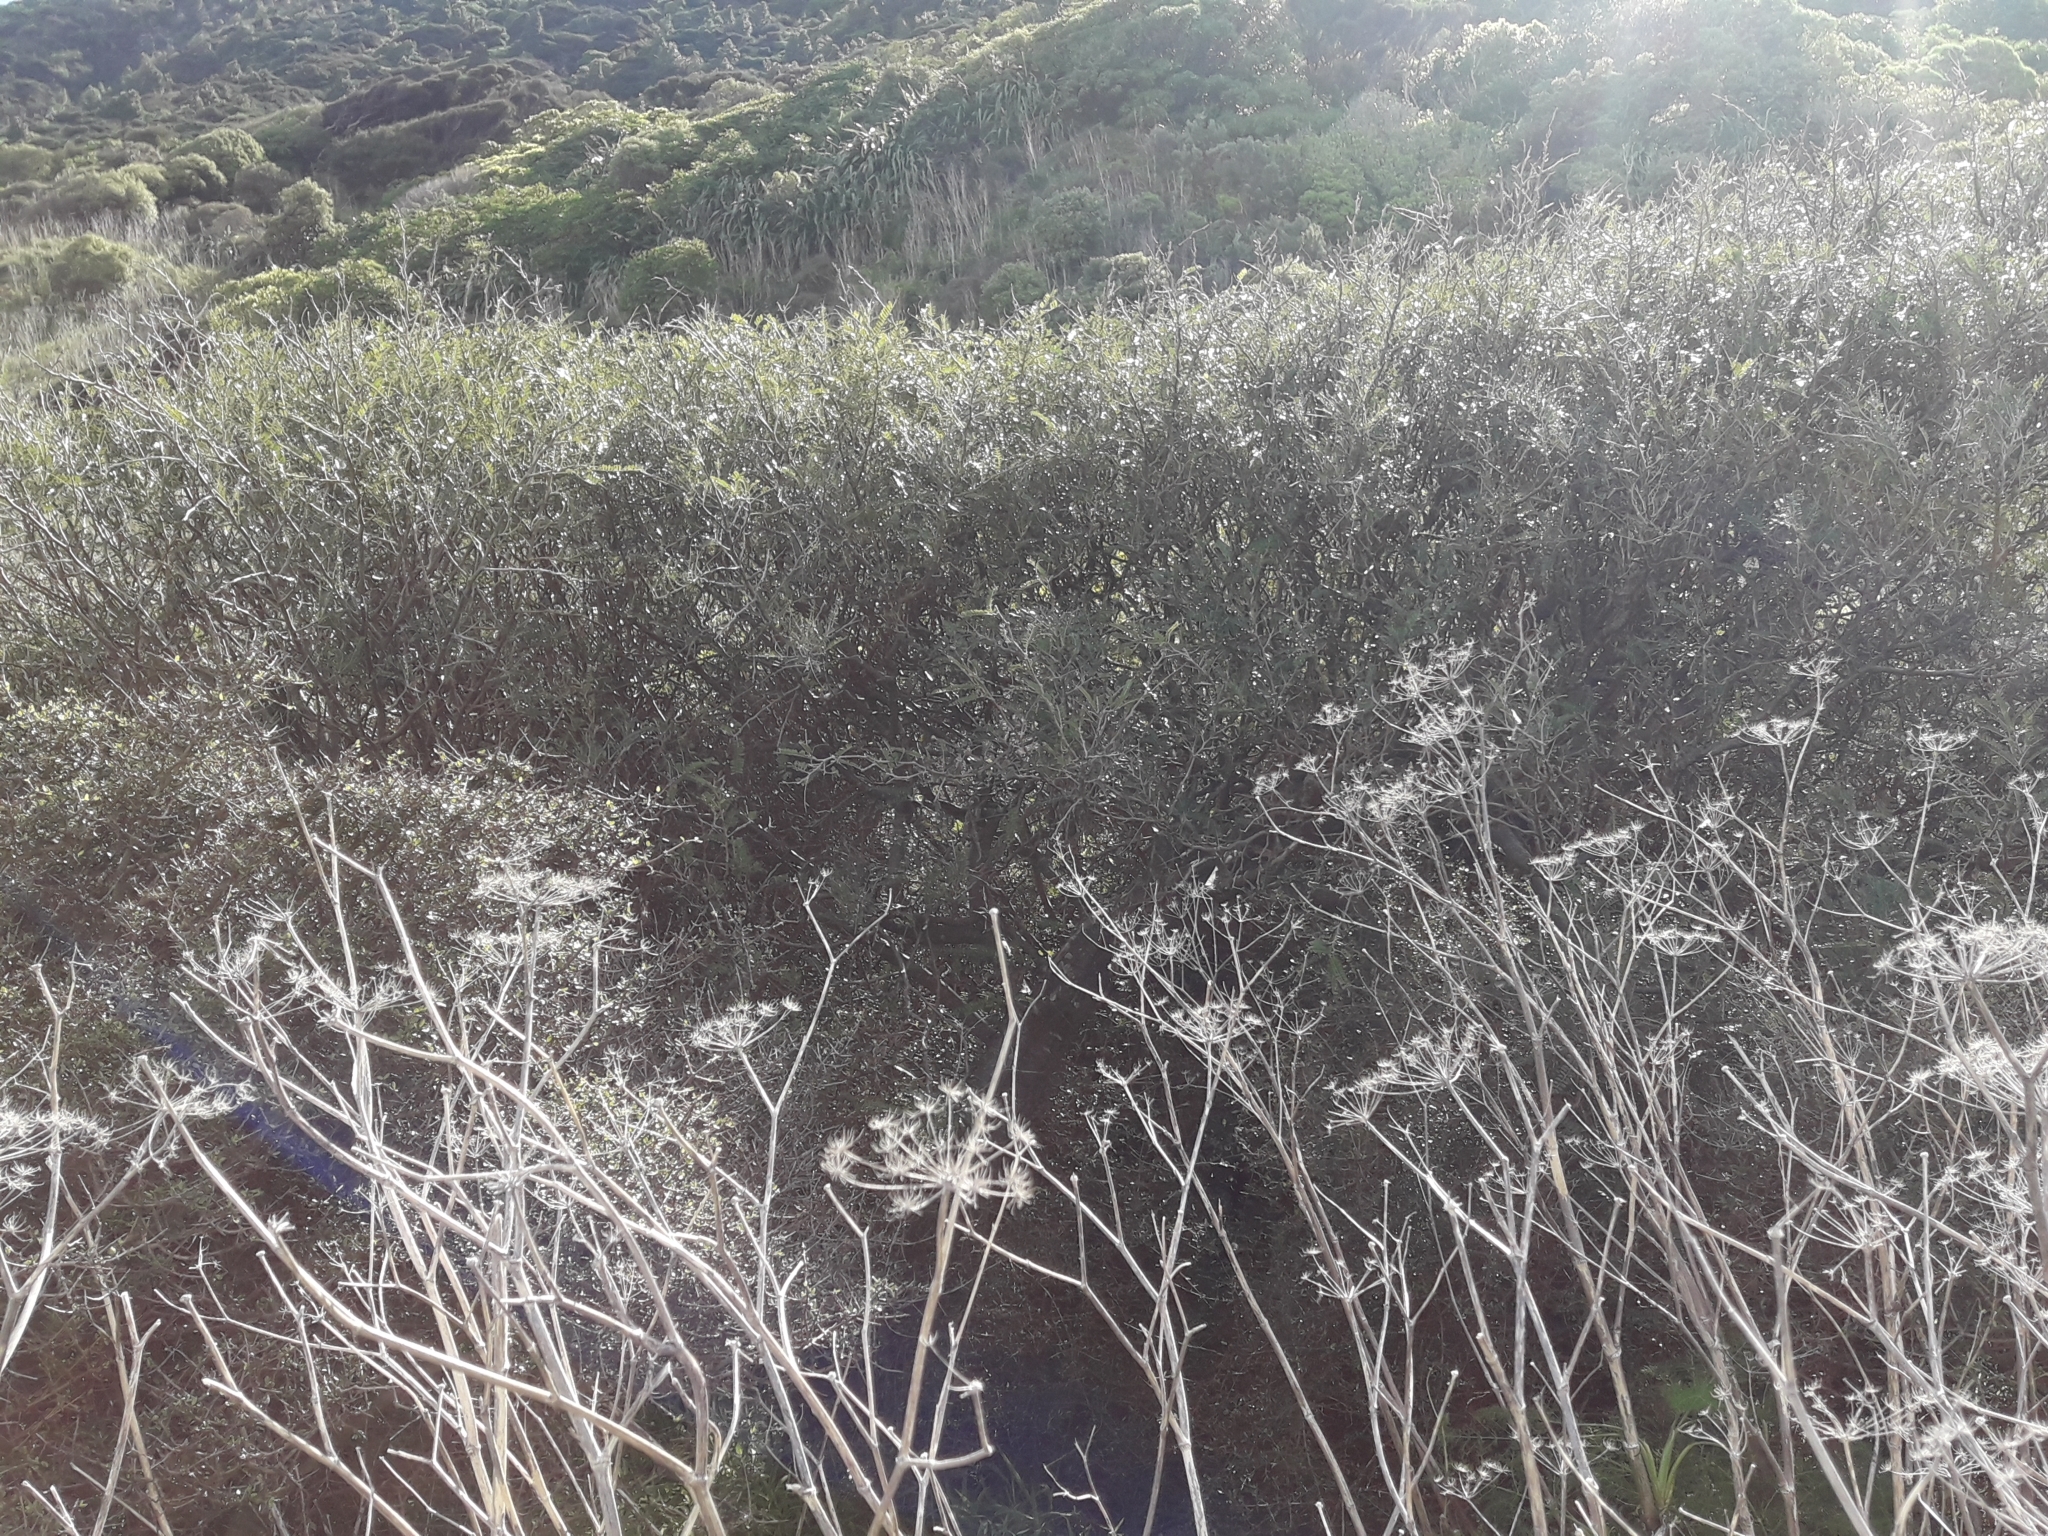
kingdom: Plantae
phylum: Tracheophyta
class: Magnoliopsida
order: Fabales
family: Fabaceae
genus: Sophora
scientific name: Sophora molloyi
